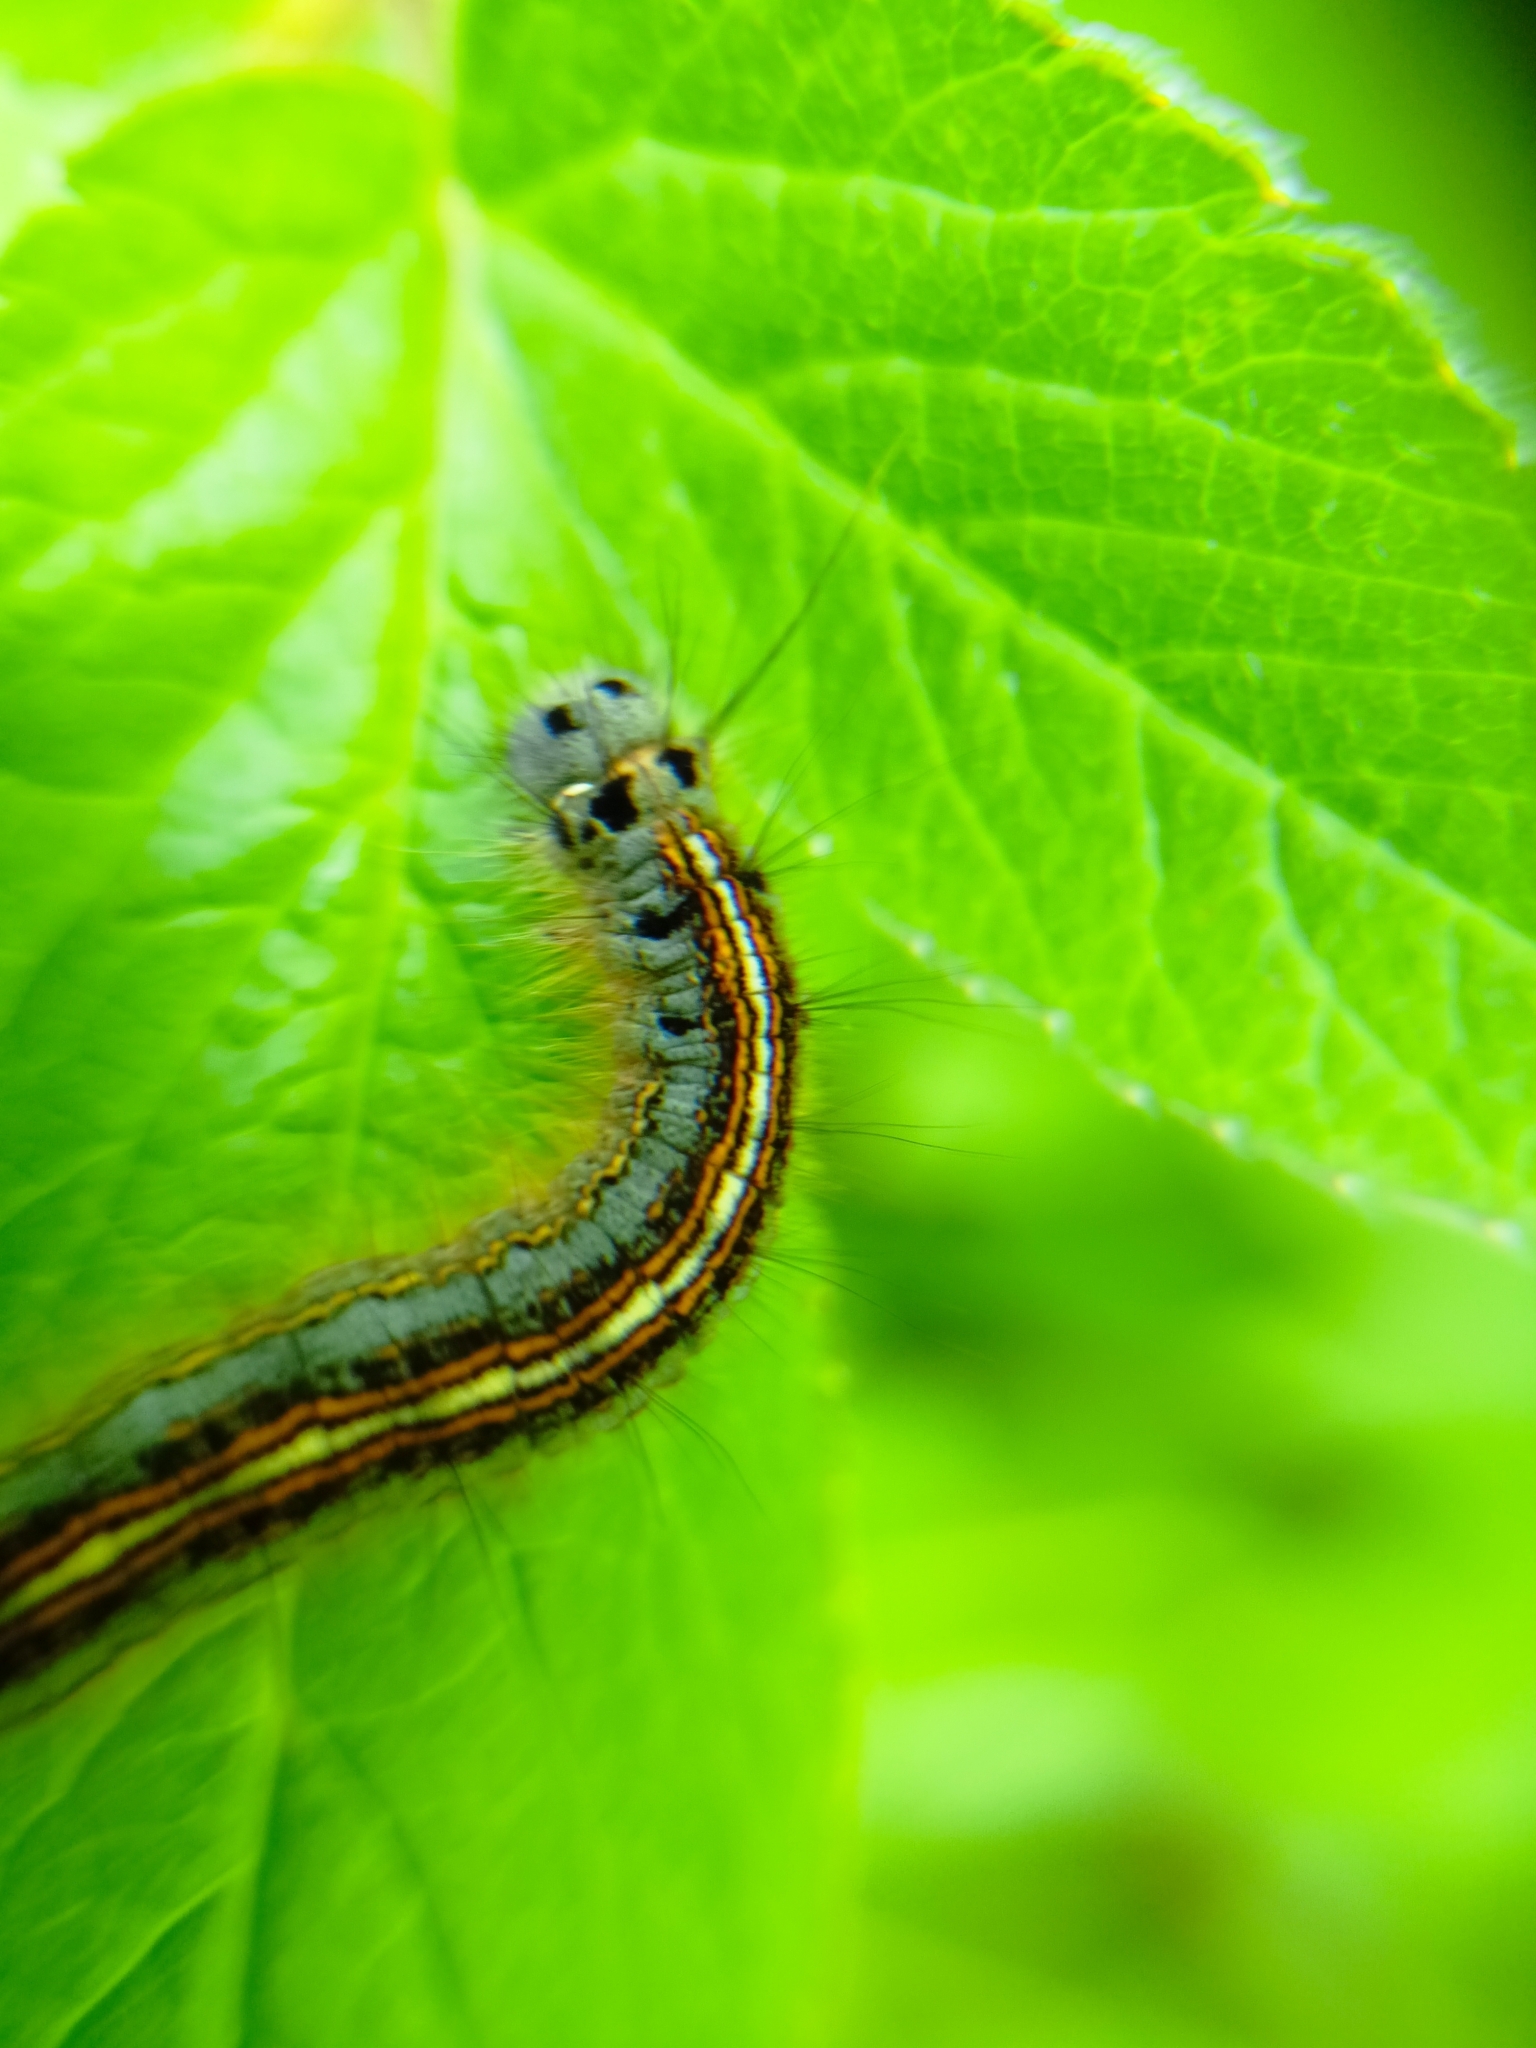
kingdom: Animalia
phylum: Arthropoda
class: Insecta
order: Lepidoptera
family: Lasiocampidae
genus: Malacosoma
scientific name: Malacosoma neustria
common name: The lackey
